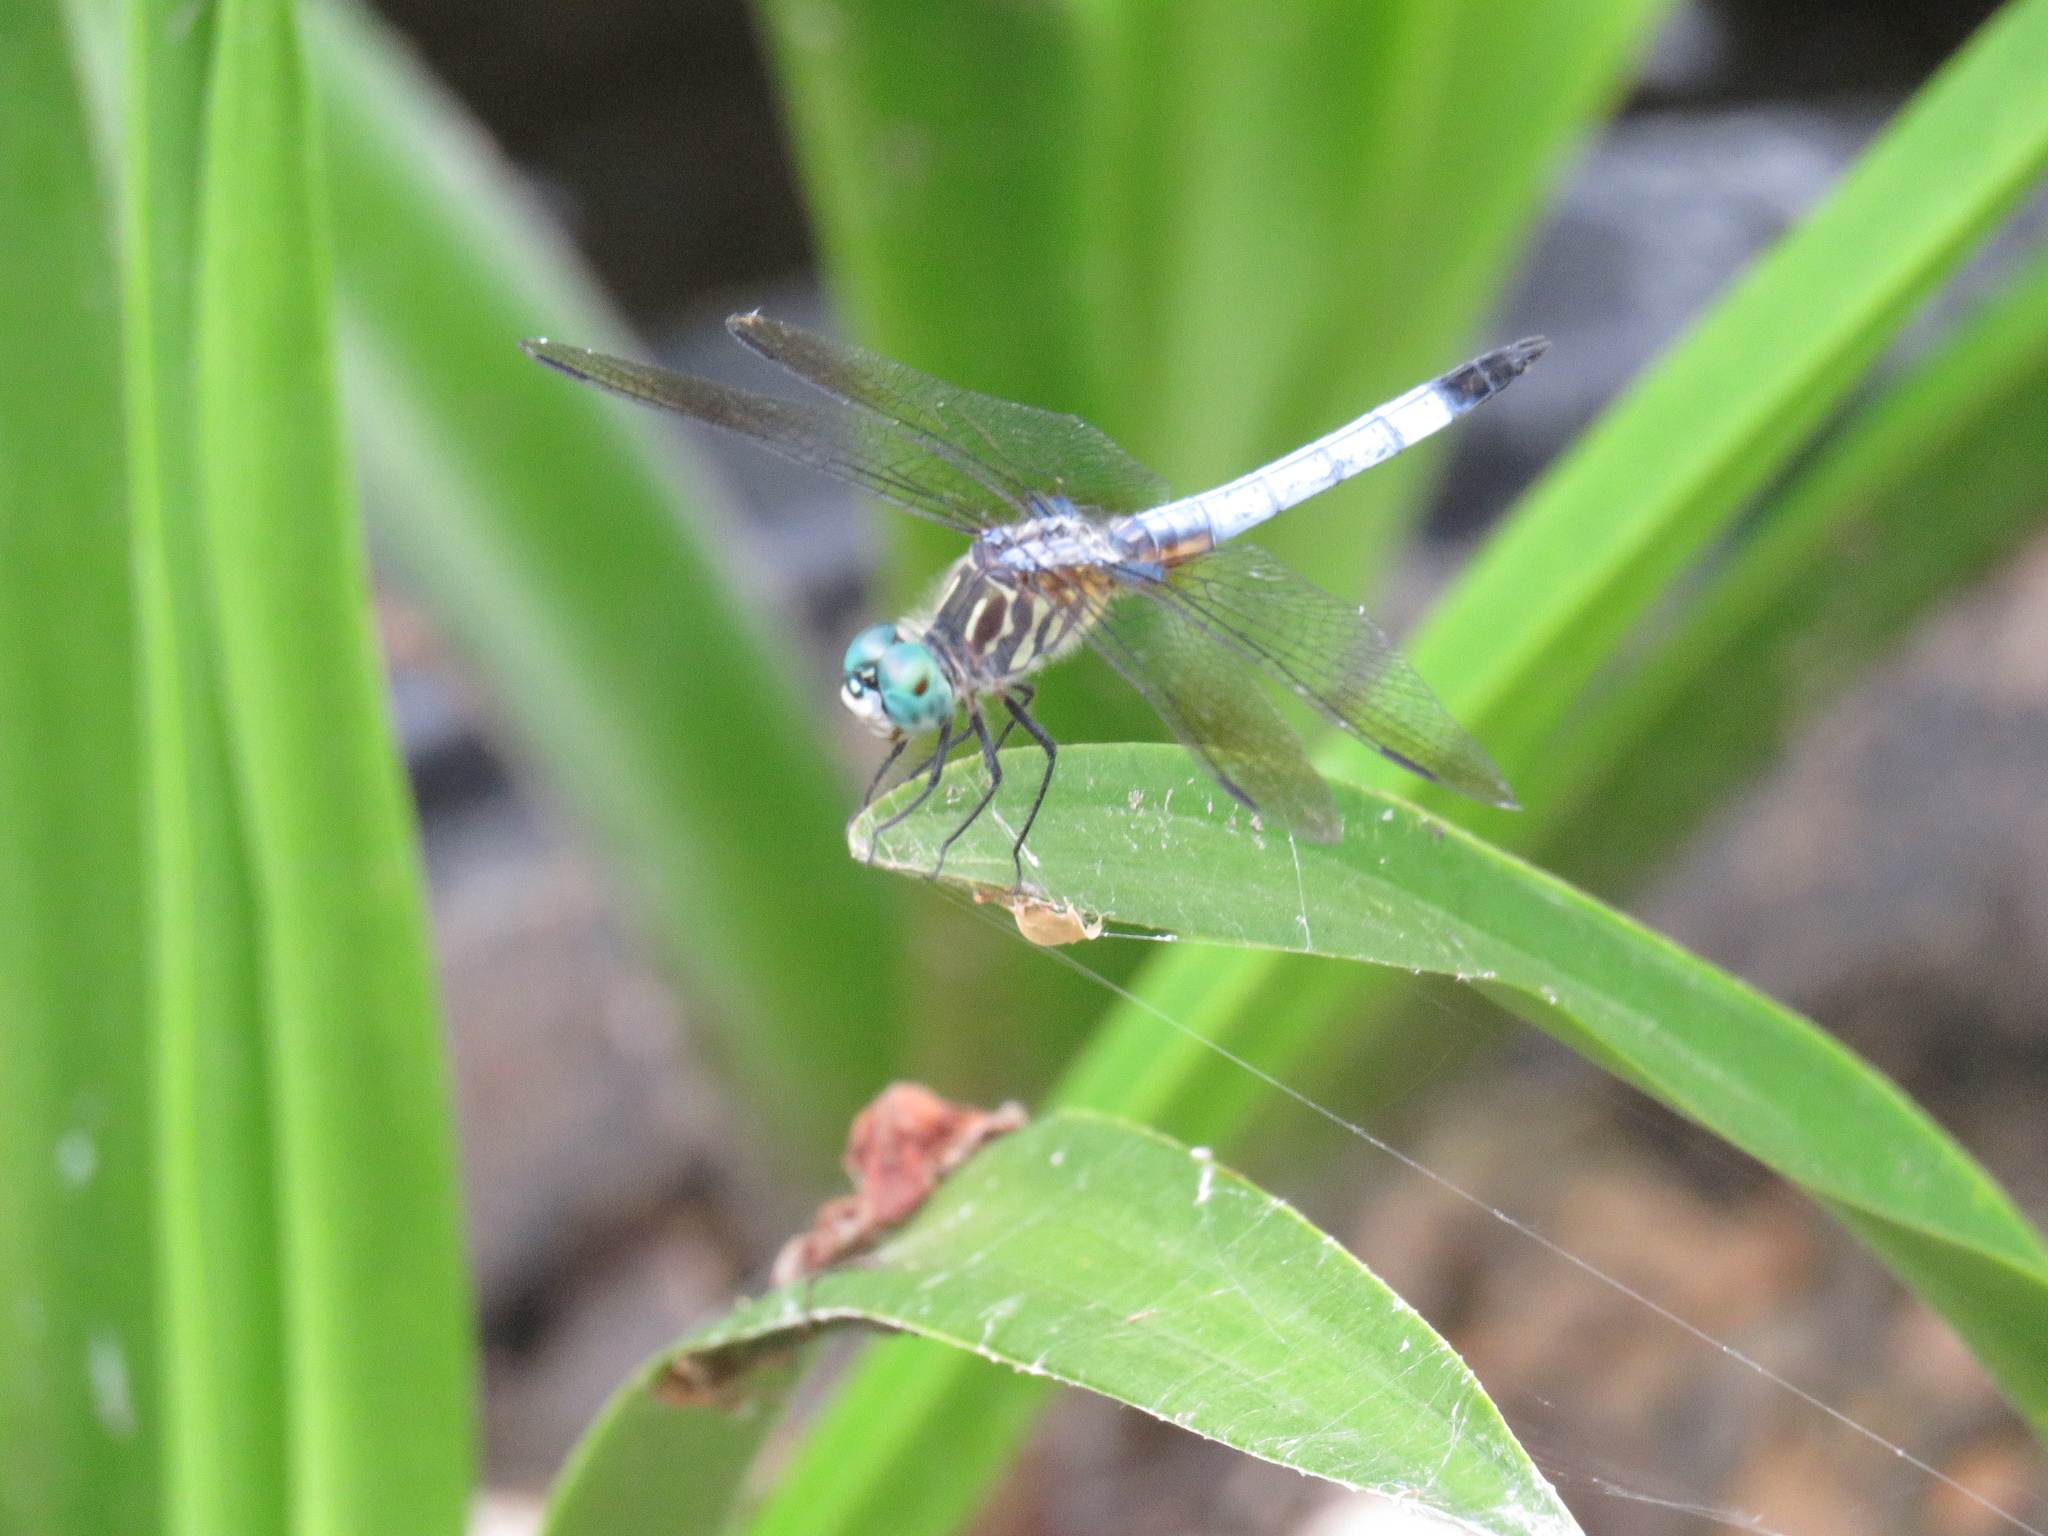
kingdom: Animalia
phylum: Arthropoda
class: Insecta
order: Odonata
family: Libellulidae
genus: Pachydiplax
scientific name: Pachydiplax longipennis
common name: Blue dasher
